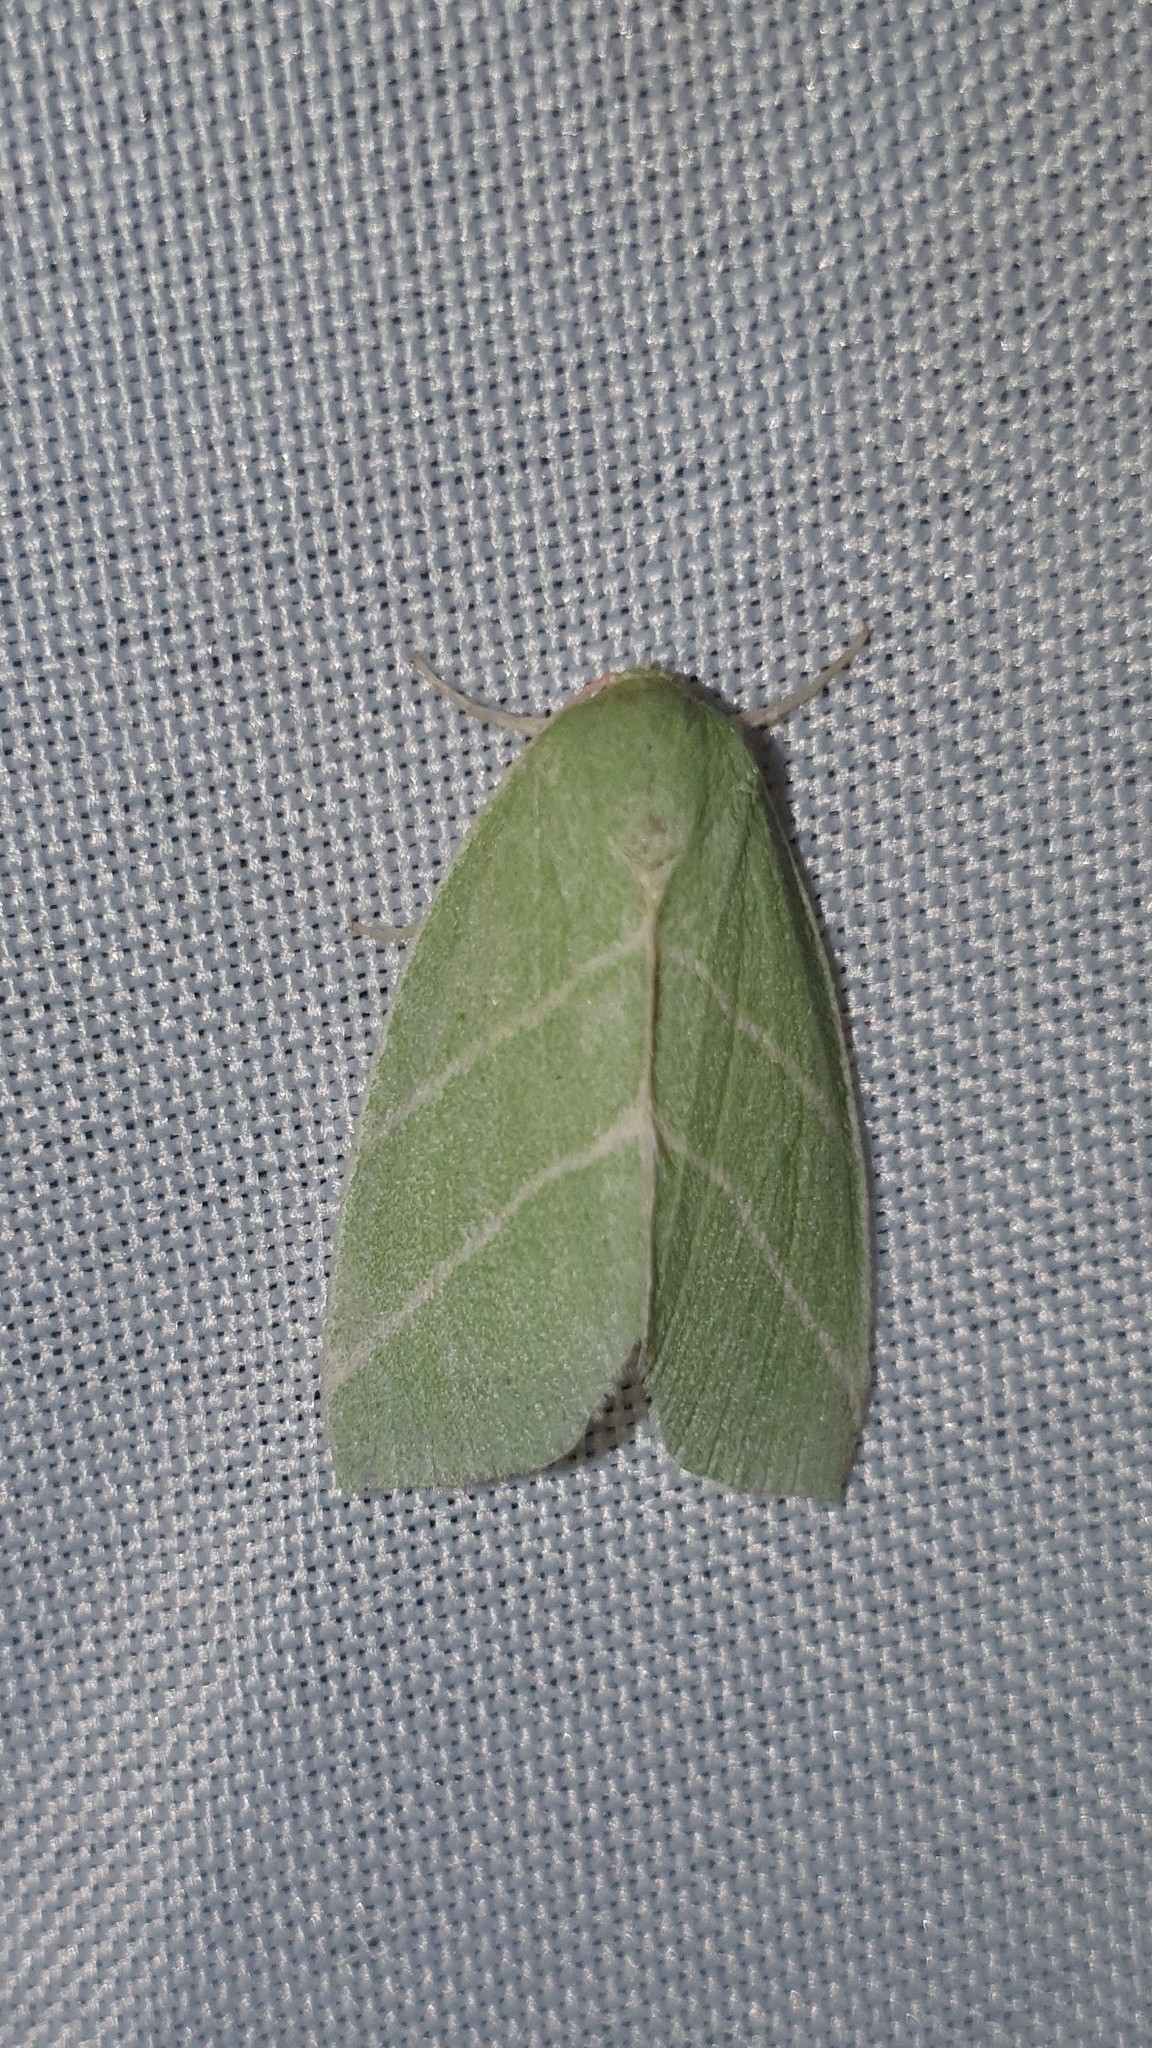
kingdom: Animalia
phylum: Arthropoda
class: Insecta
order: Lepidoptera
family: Nolidae
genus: Bena
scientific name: Bena bicolorana
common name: Scarce silver-lines
